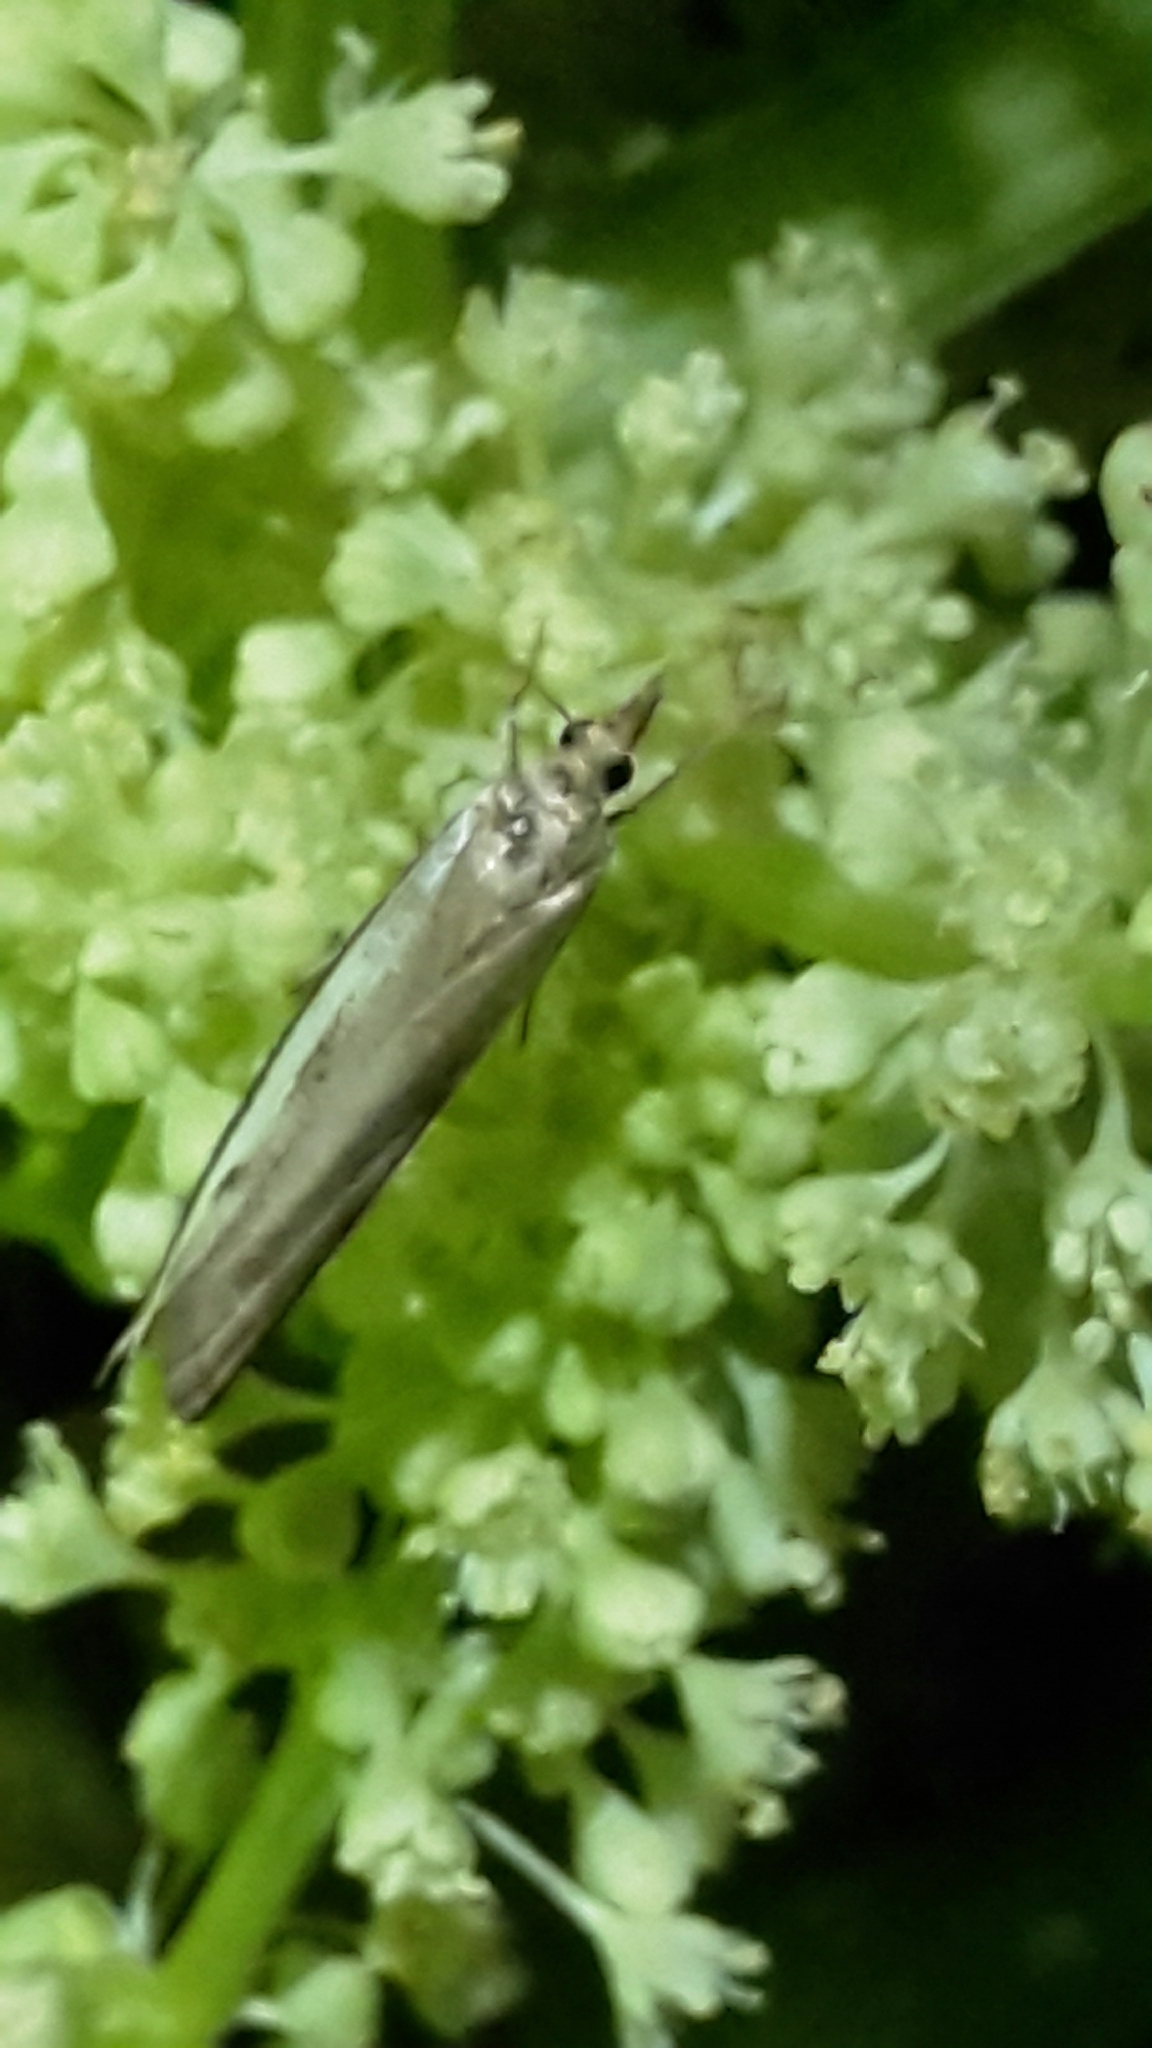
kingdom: Animalia
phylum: Arthropoda
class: Insecta
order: Lepidoptera
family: Crambidae
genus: Orocrambus
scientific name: Orocrambus flexuosellus
